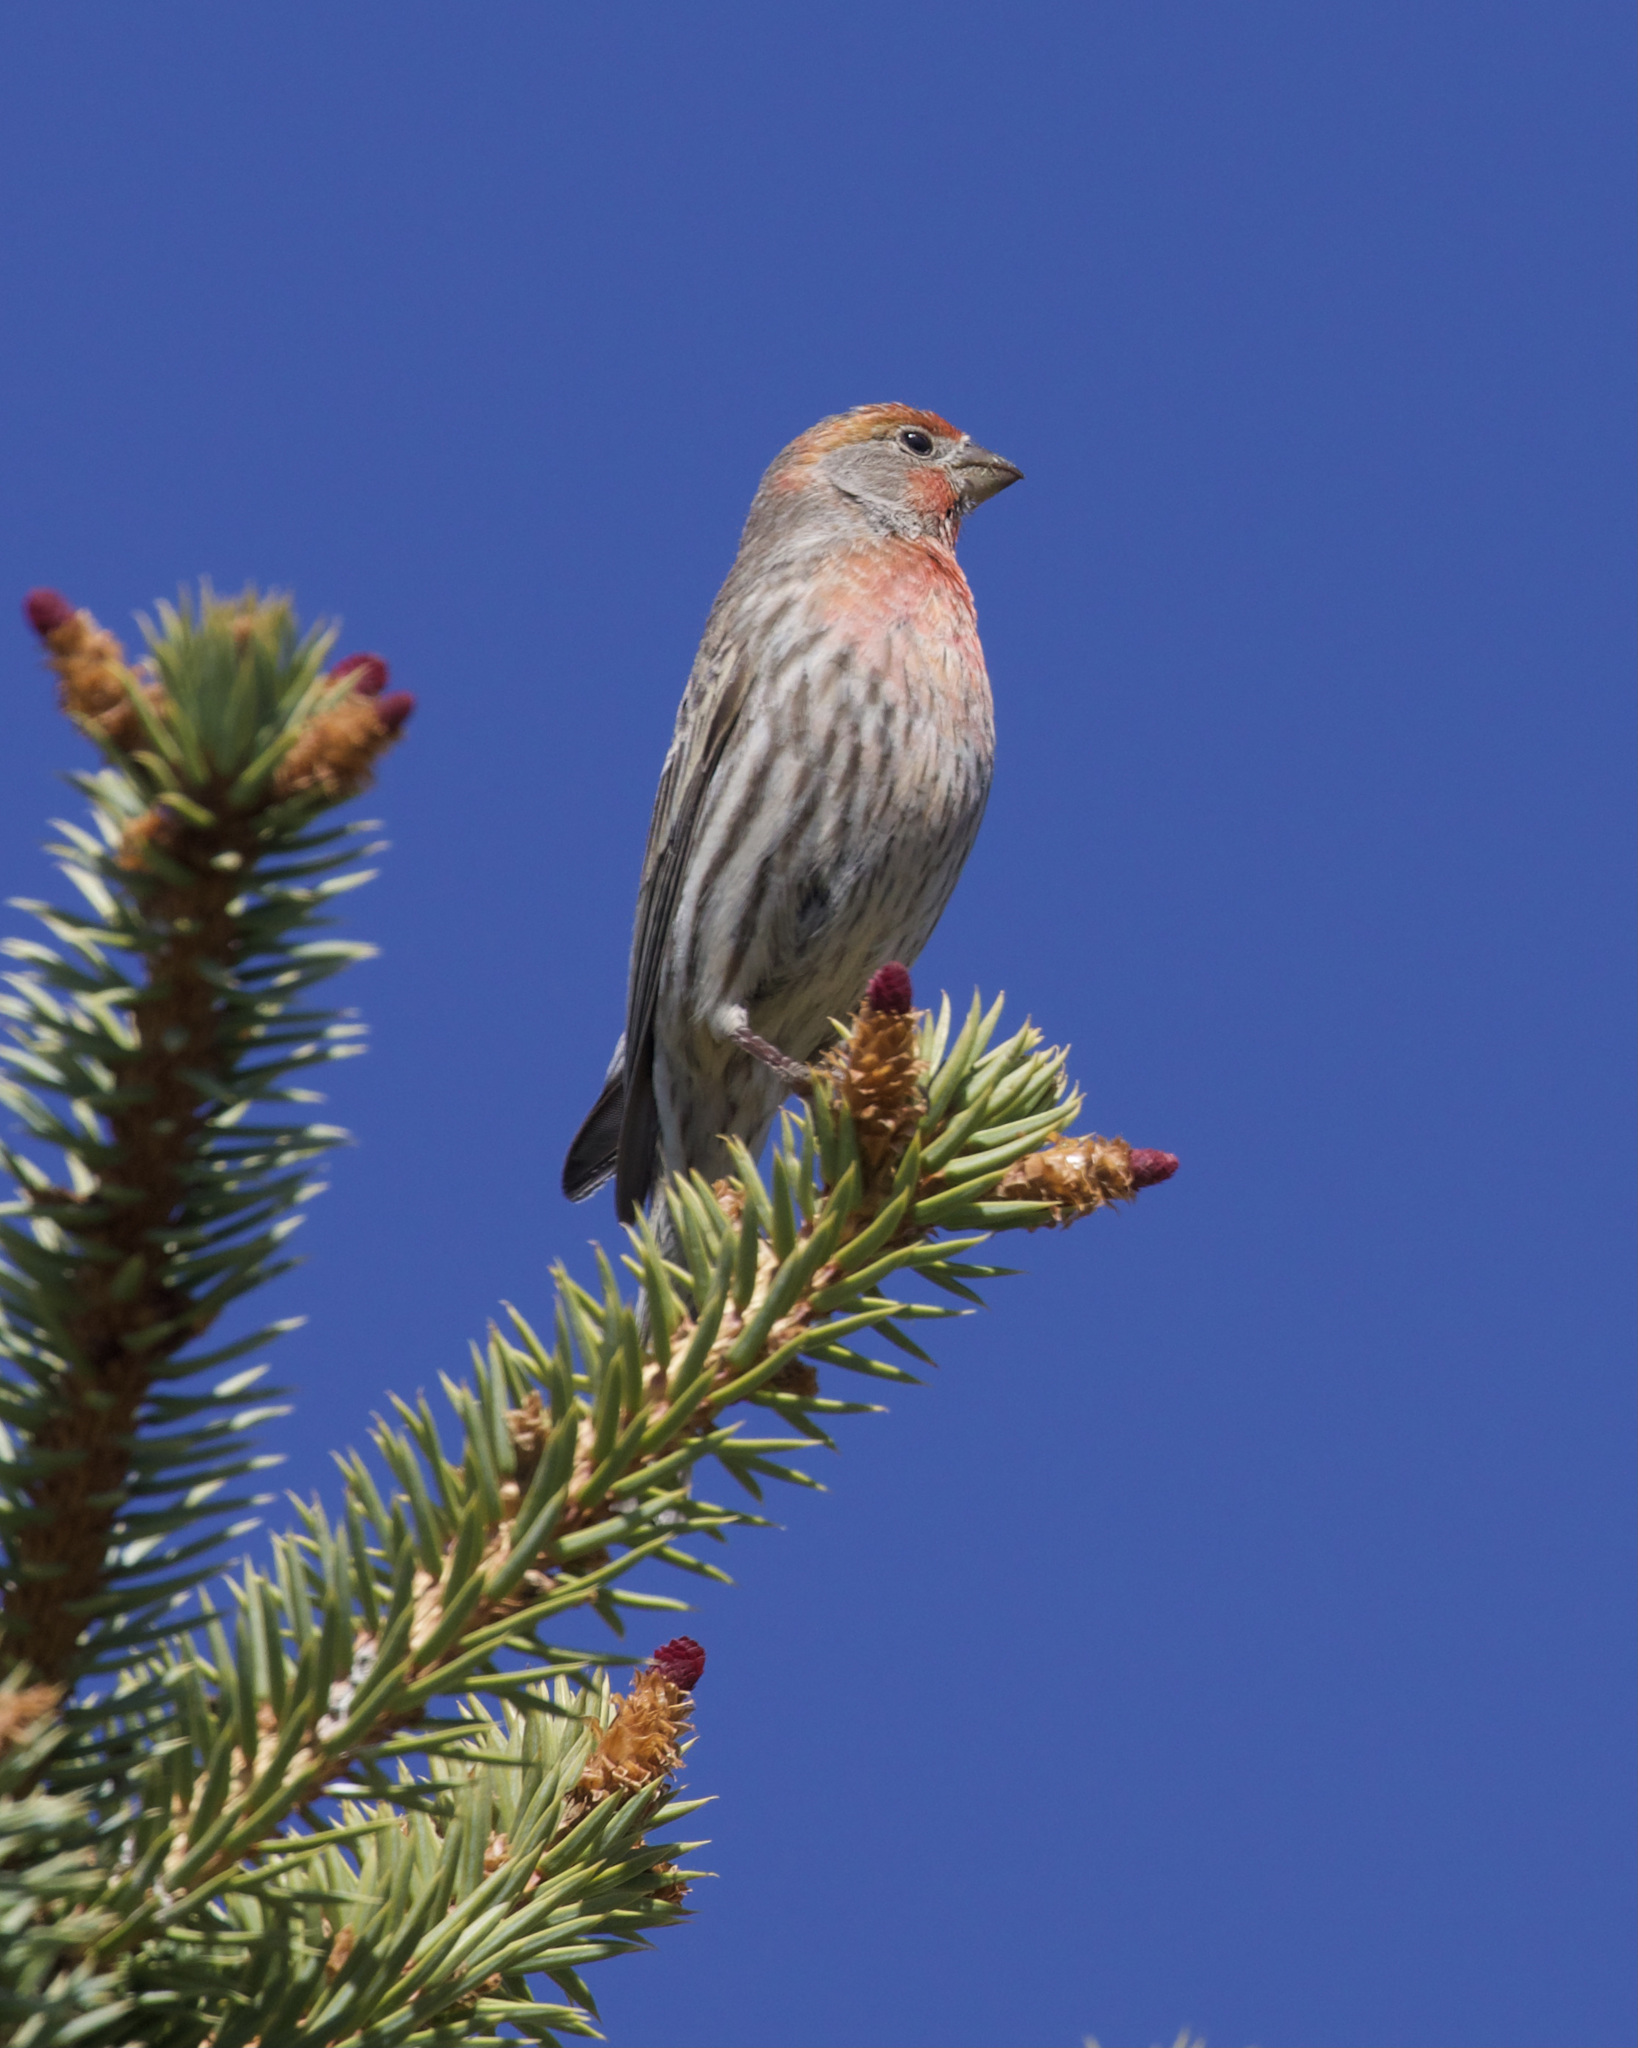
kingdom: Animalia
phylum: Chordata
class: Aves
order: Passeriformes
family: Fringillidae
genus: Haemorhous
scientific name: Haemorhous mexicanus
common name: House finch
